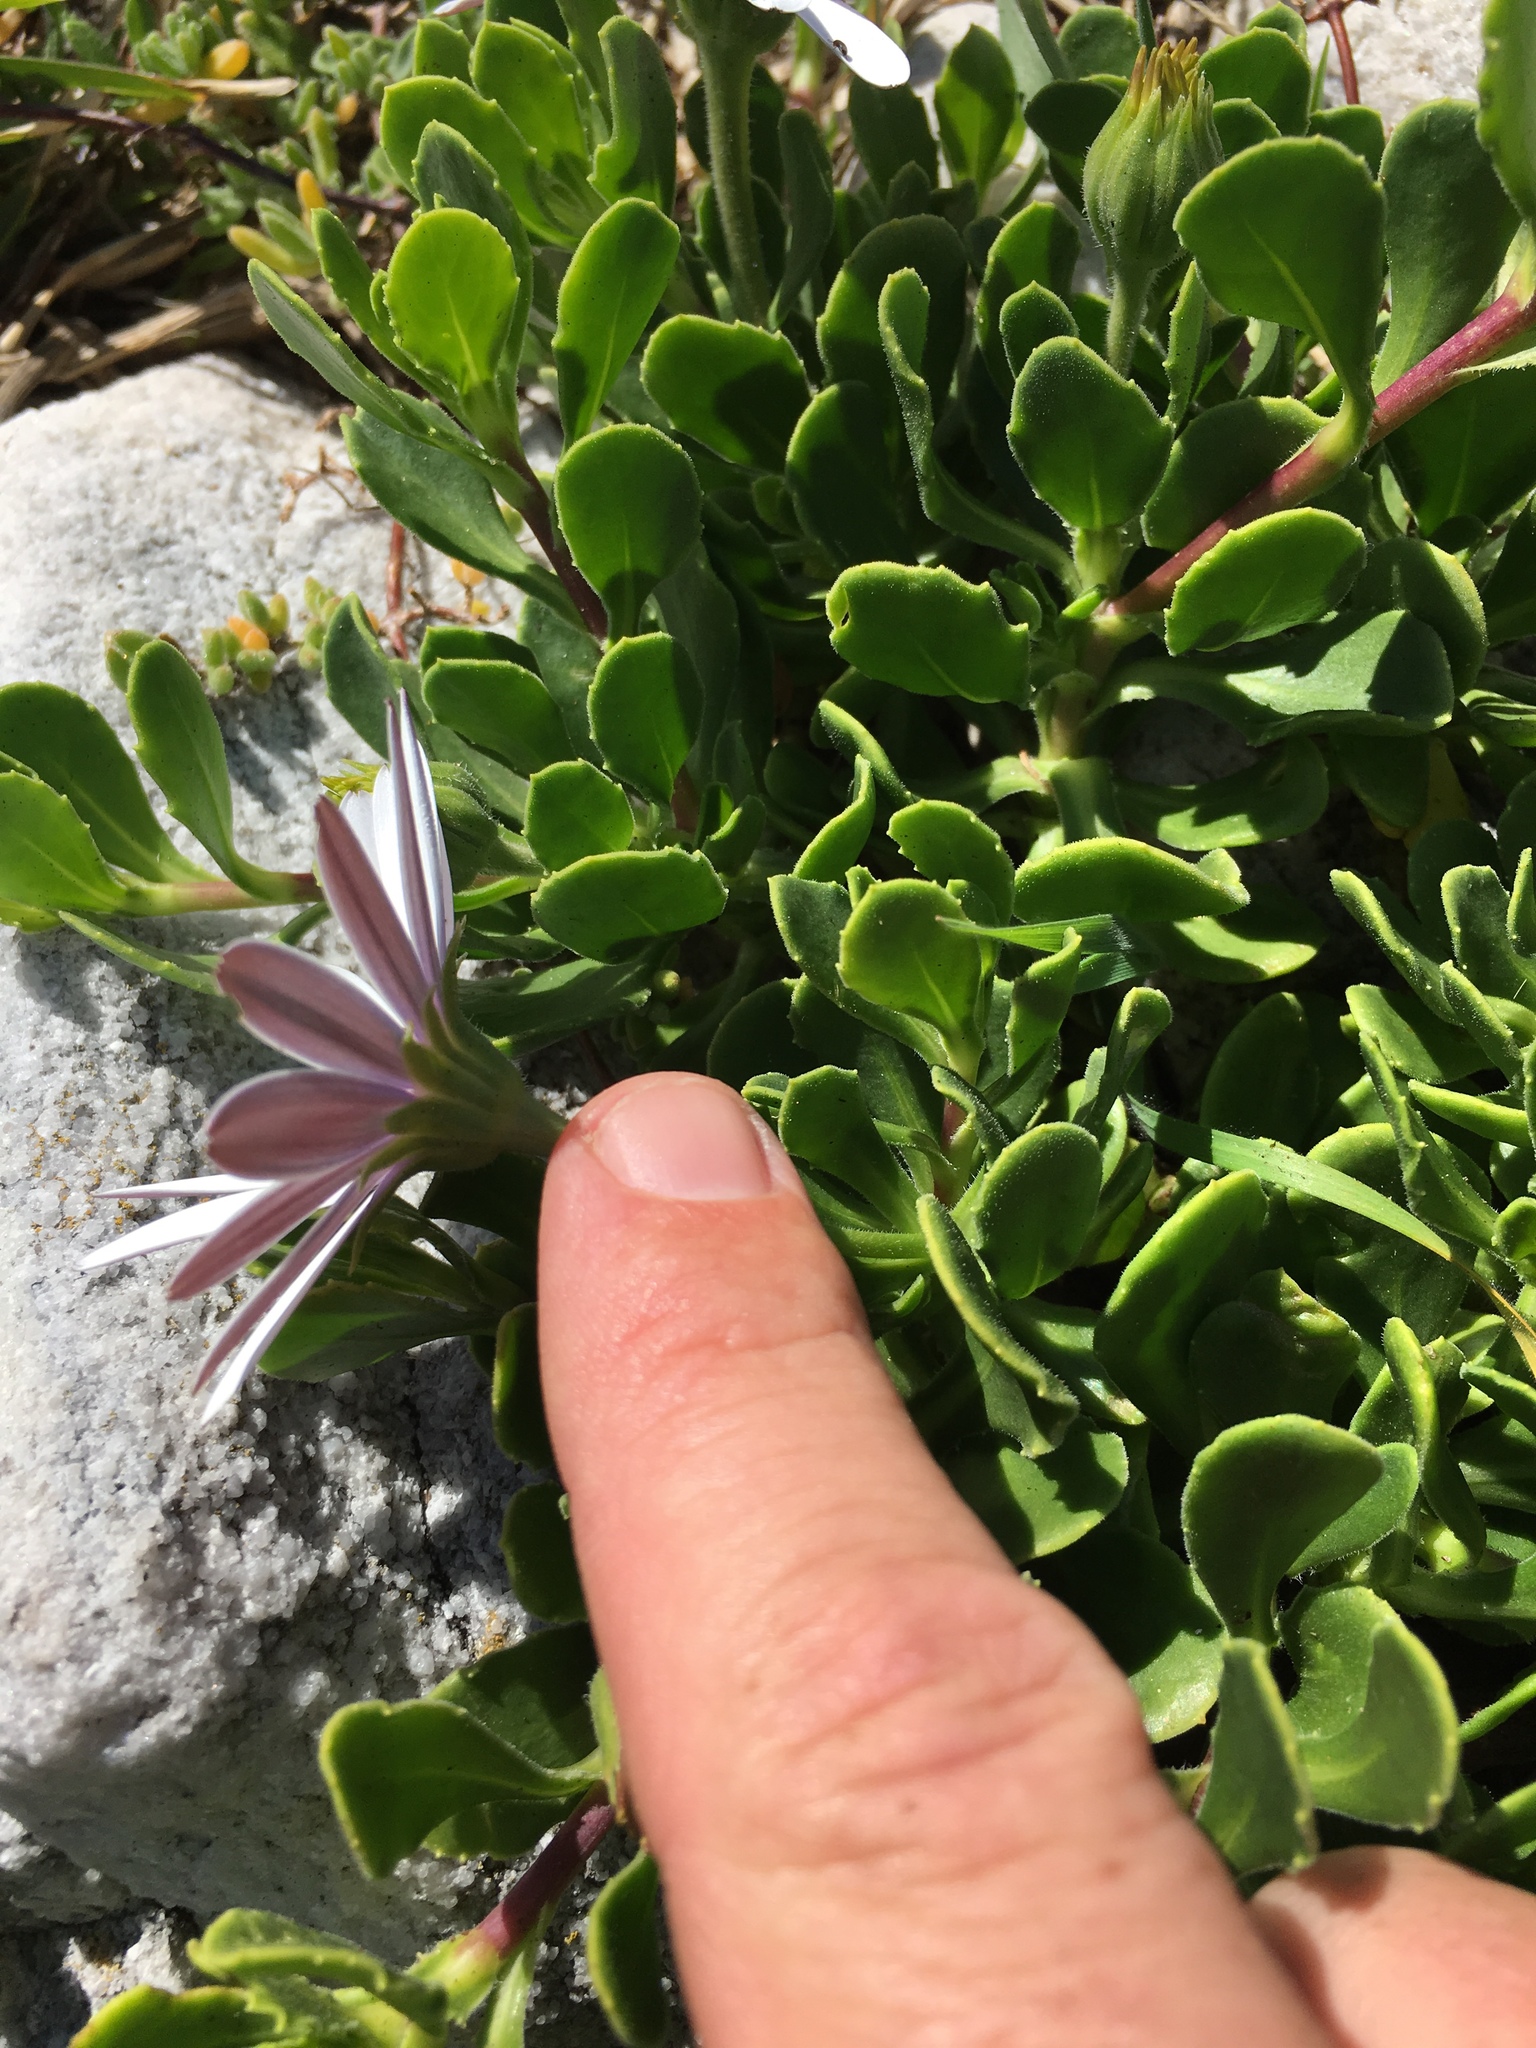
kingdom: Plantae
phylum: Tracheophyta
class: Magnoliopsida
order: Asterales
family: Asteraceae
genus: Dimorphotheca
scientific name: Dimorphotheca fruticosa
